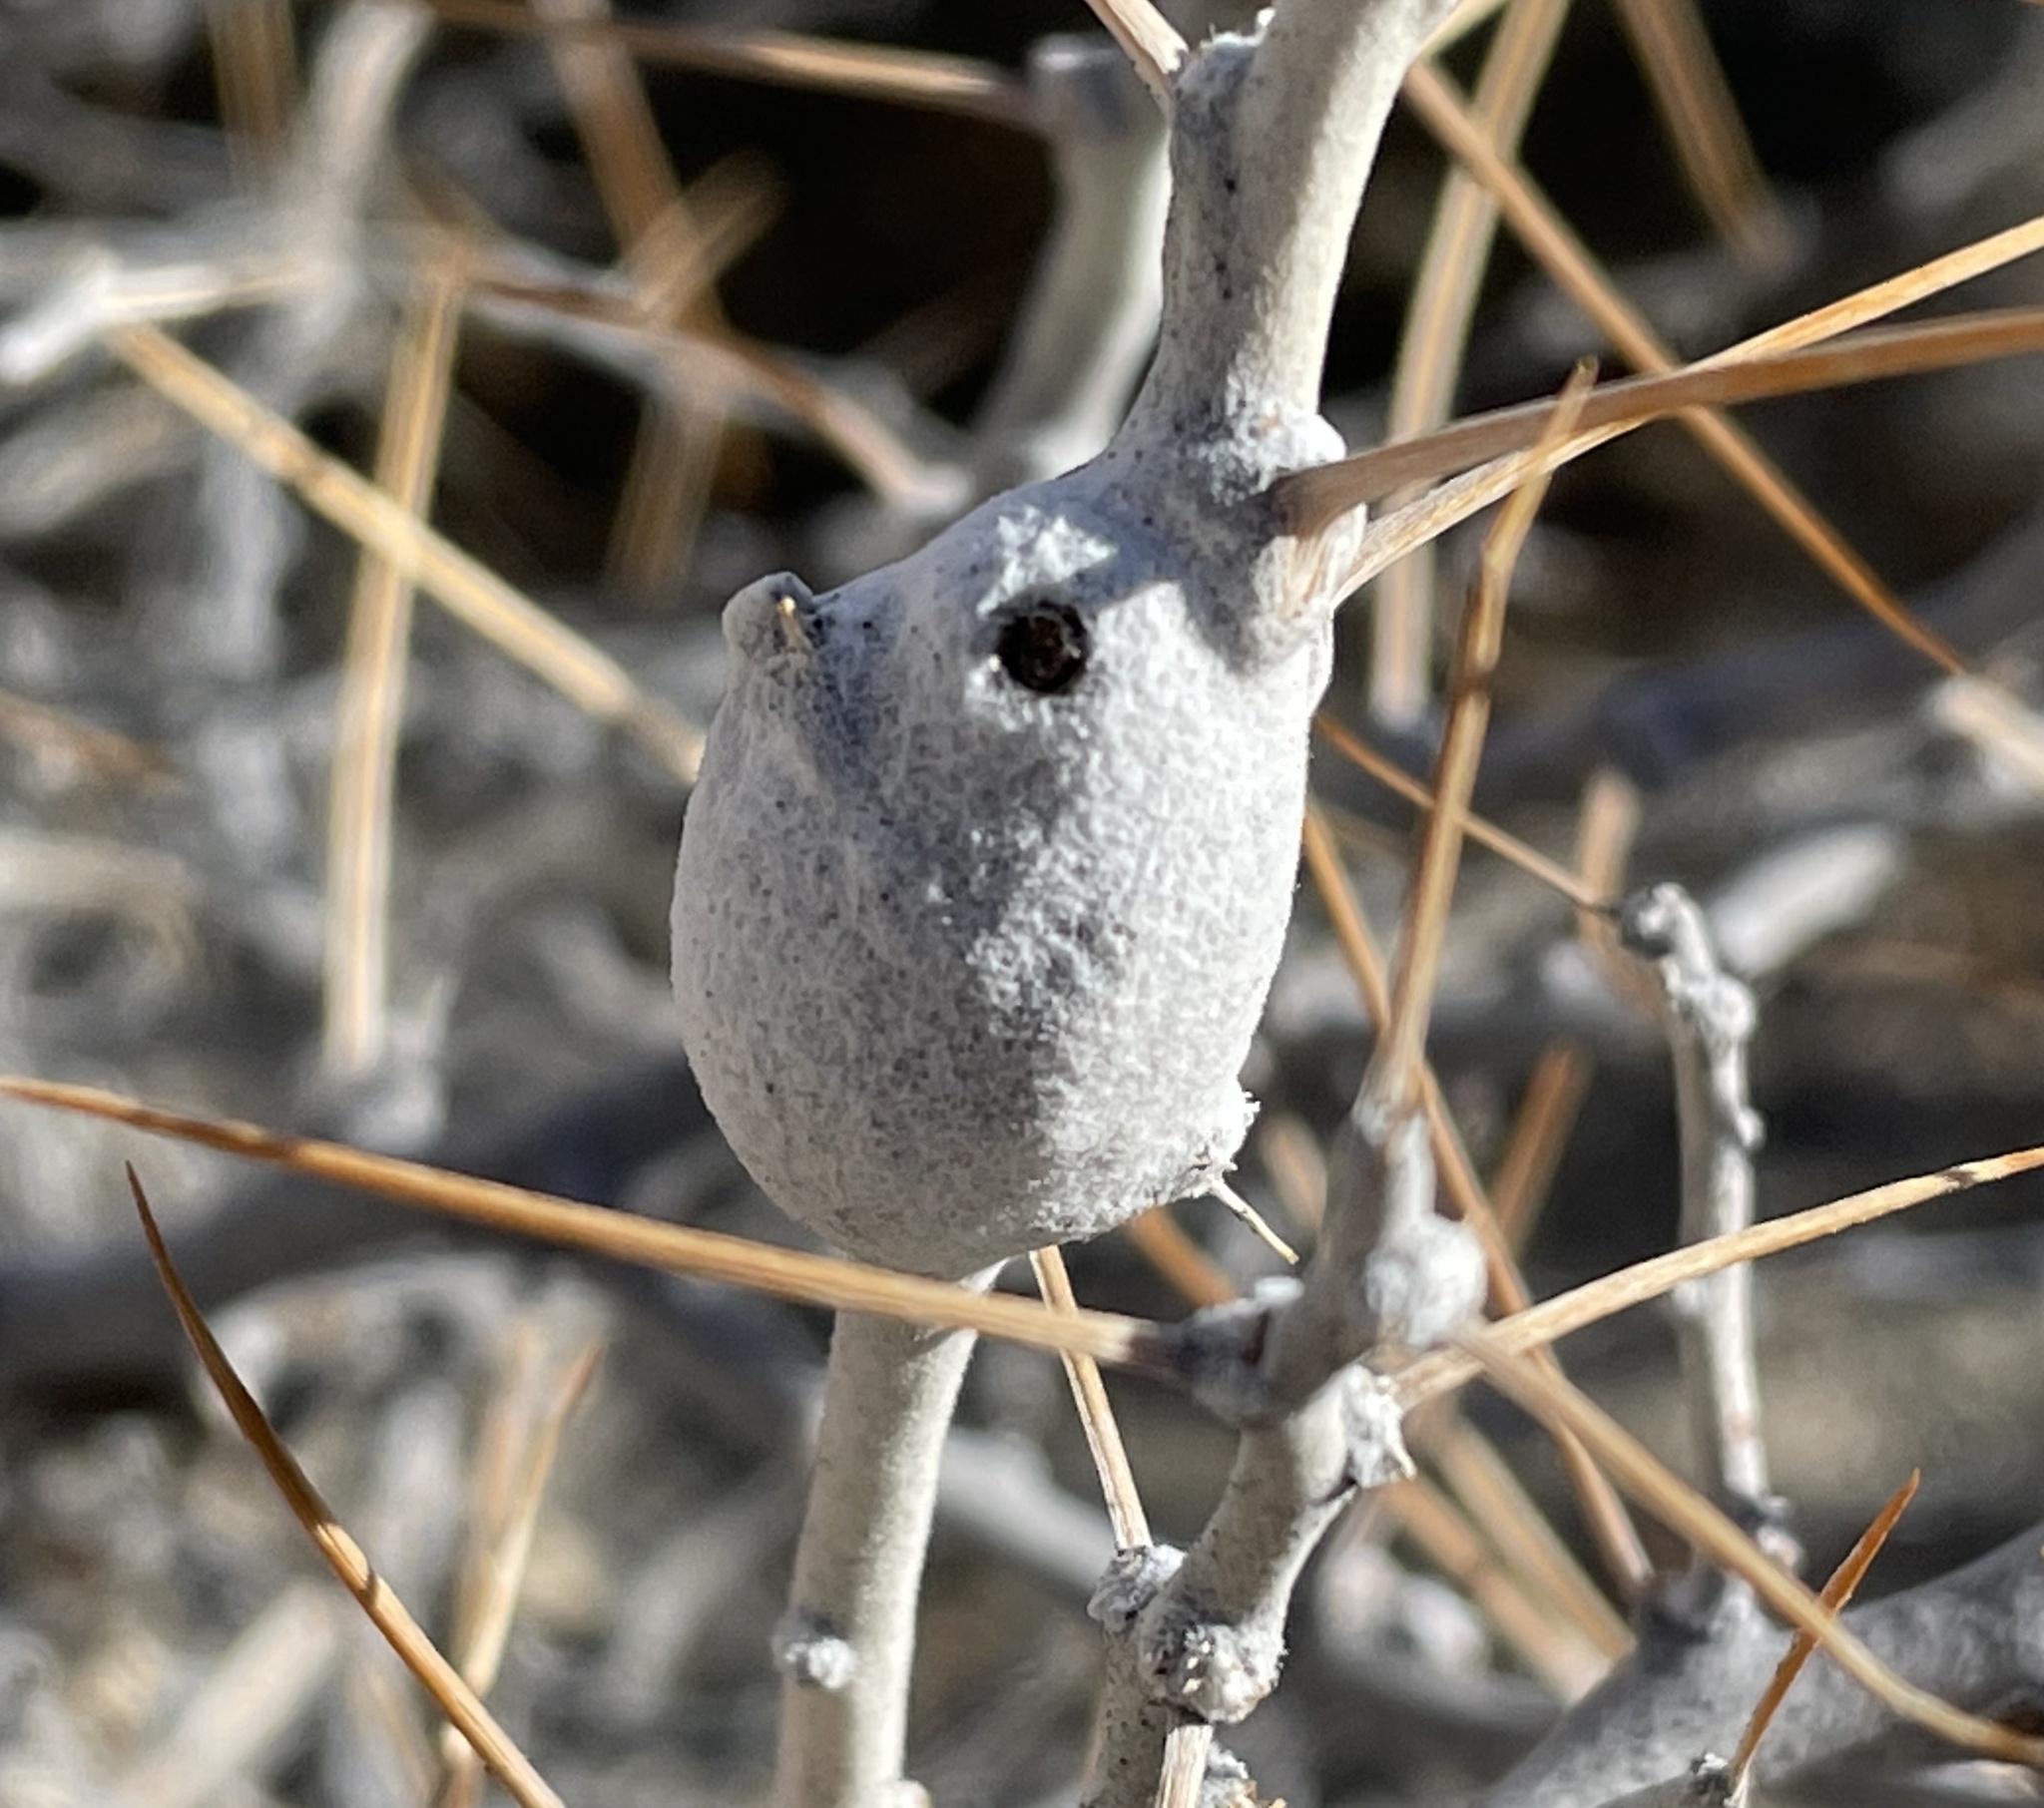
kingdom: Animalia
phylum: Arthropoda
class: Insecta
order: Lepidoptera
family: Gelechiidae
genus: Scrobipalpopsis
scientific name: Scrobipalpopsis tetradymiella
